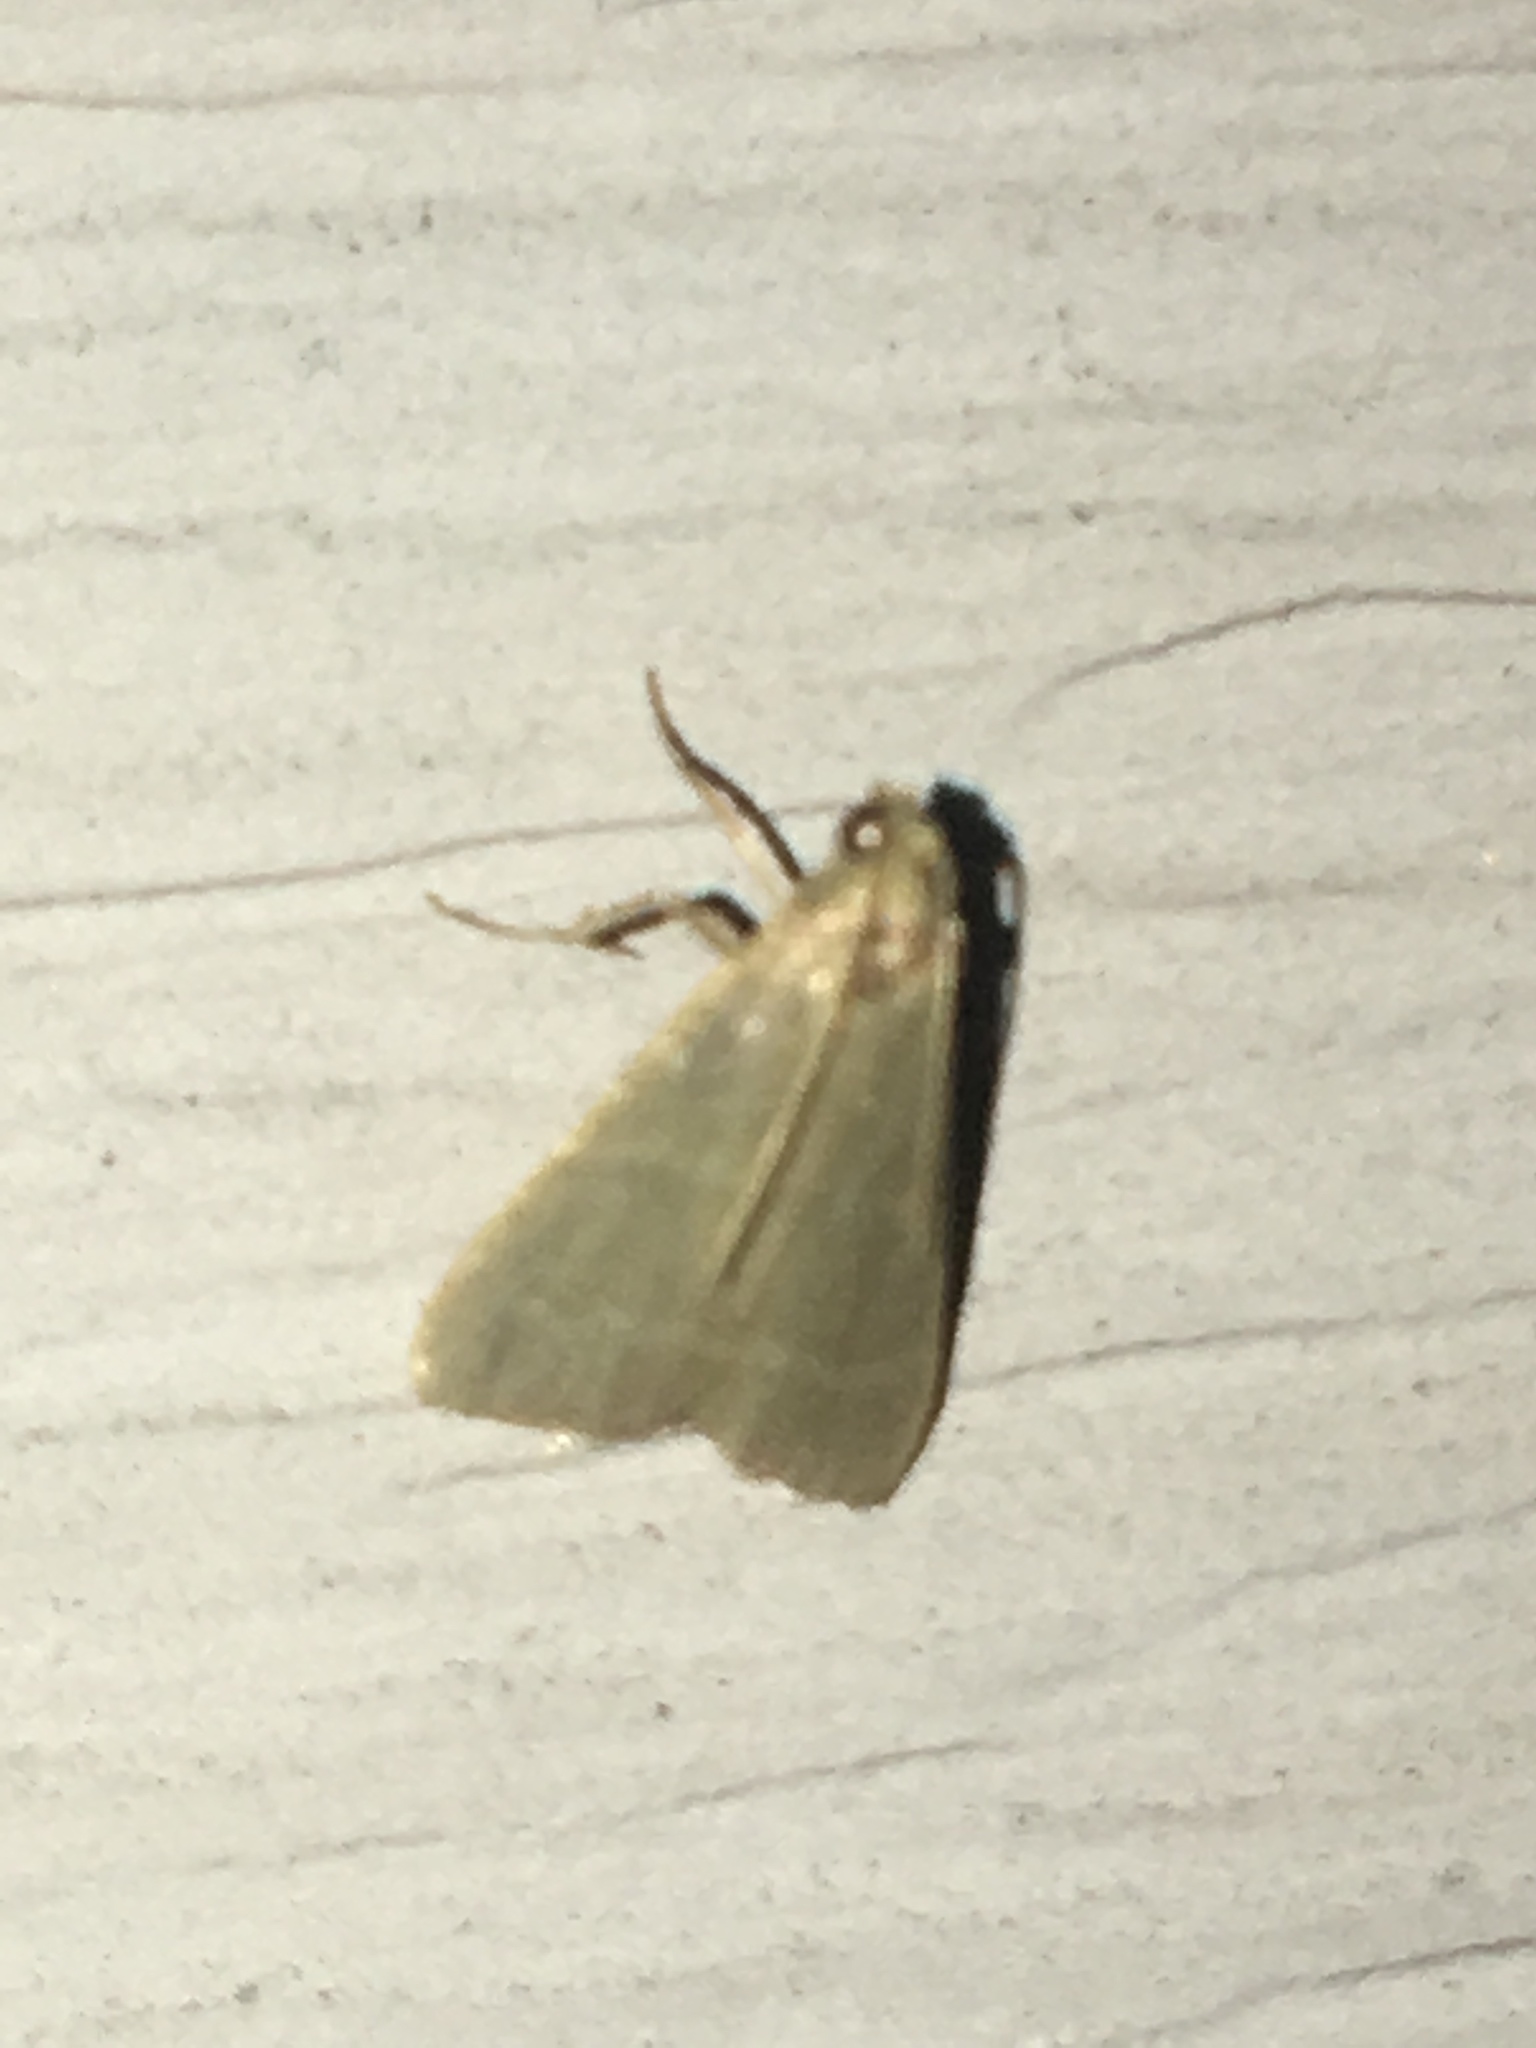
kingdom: Animalia
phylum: Arthropoda
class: Insecta
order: Lepidoptera
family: Pyralidae
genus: Arta
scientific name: Arta olivalis
